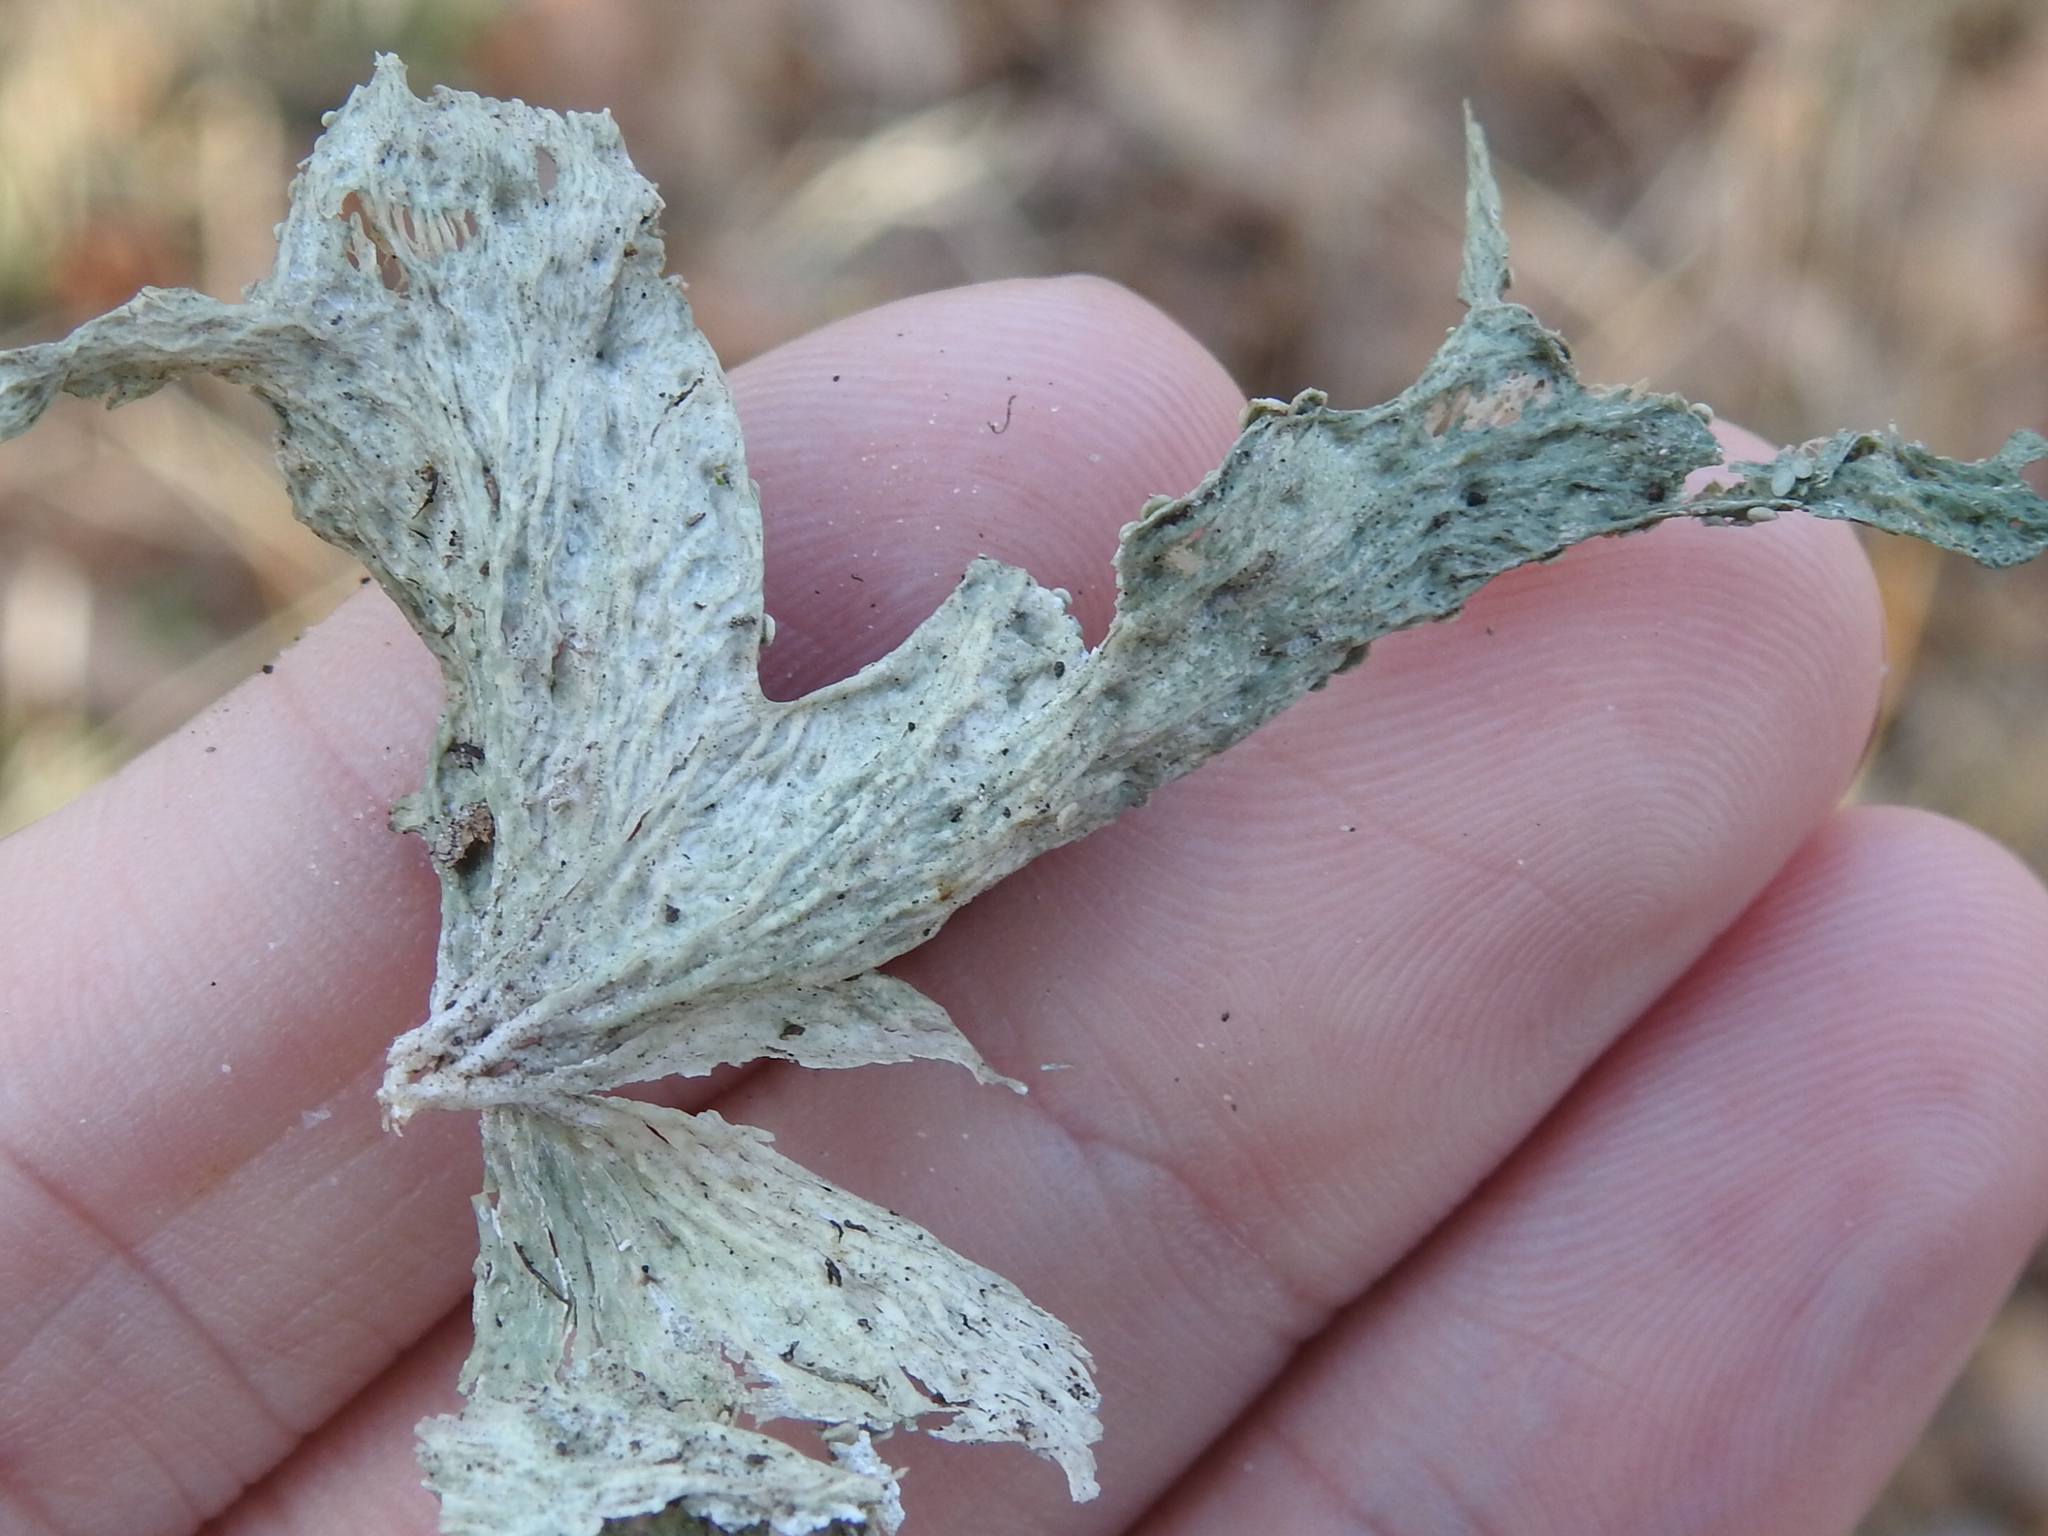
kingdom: Fungi
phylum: Ascomycota
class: Lecanoromycetes
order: Lecanorales
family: Ramalinaceae
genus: Ramalina
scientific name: Ramalina celastri
